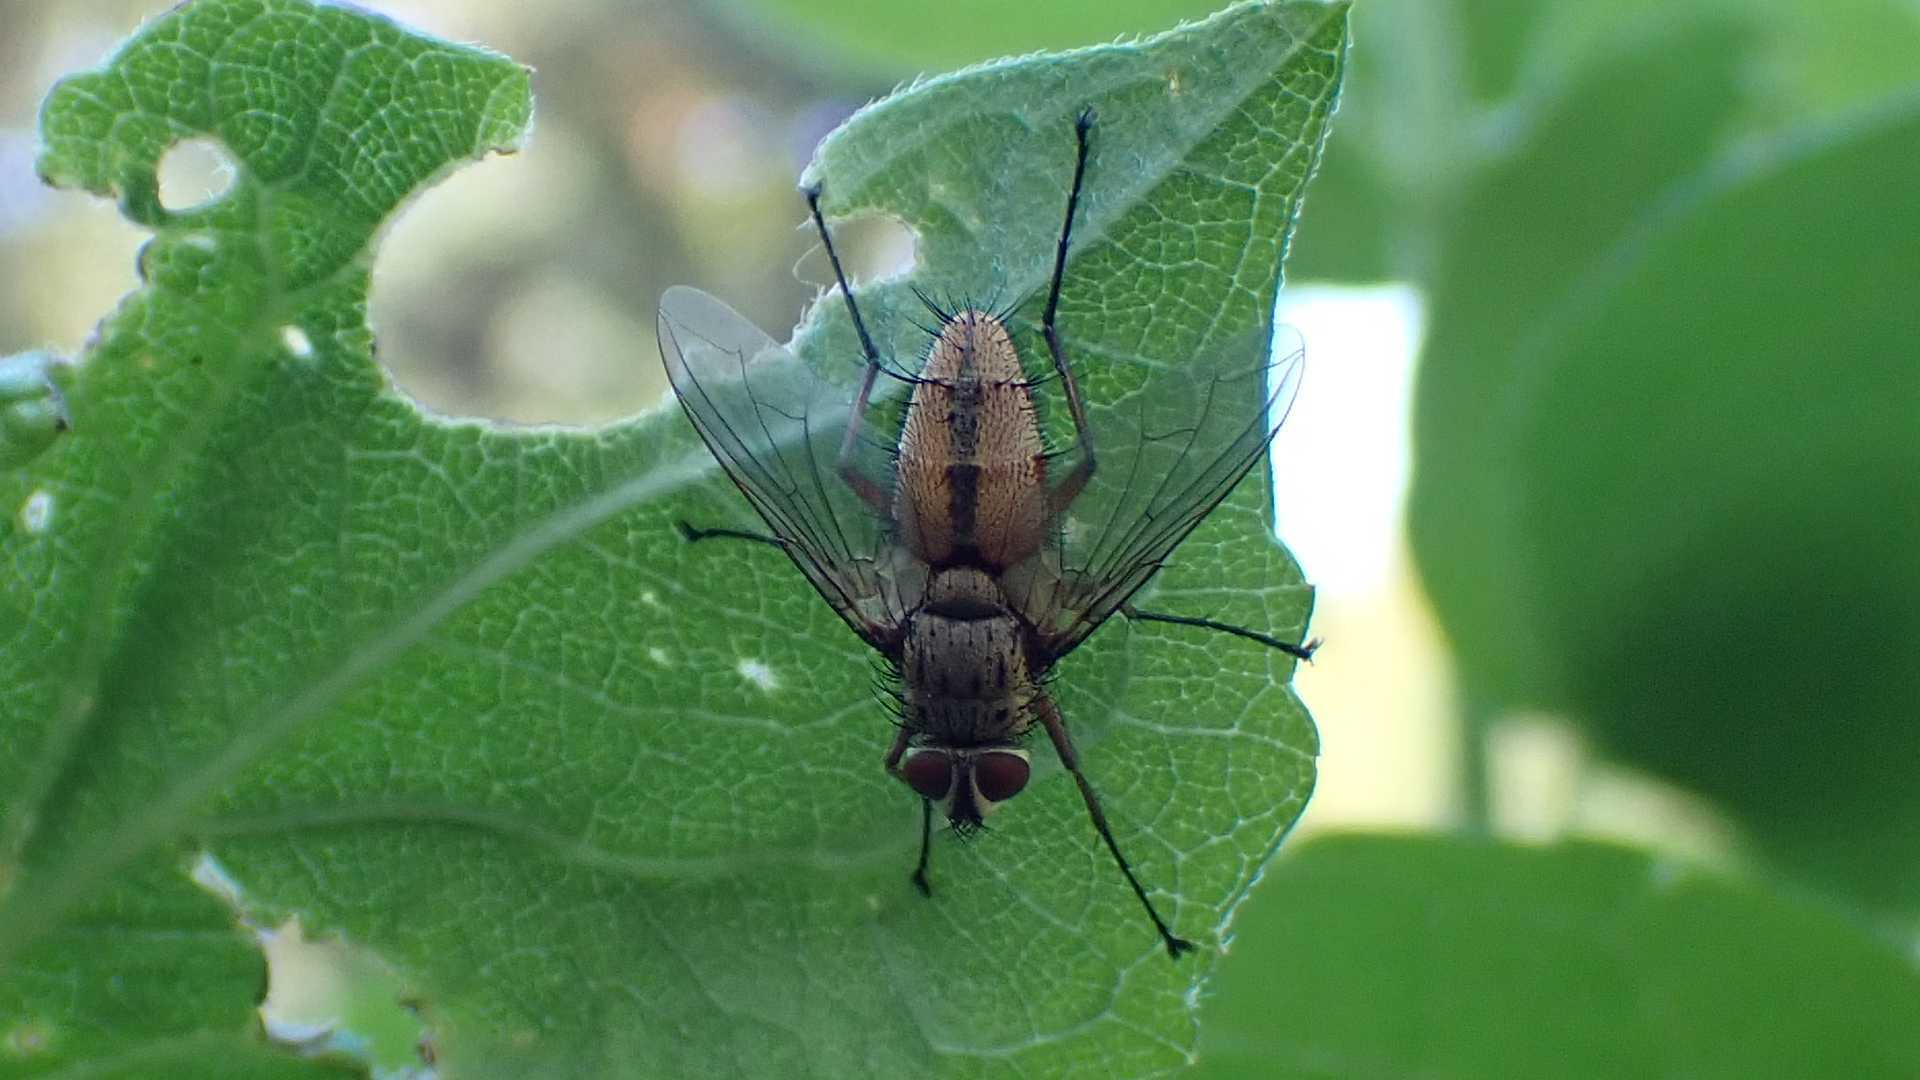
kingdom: Animalia
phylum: Arthropoda
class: Insecta
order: Diptera
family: Tachinidae
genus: Dexia
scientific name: Dexia rustica
